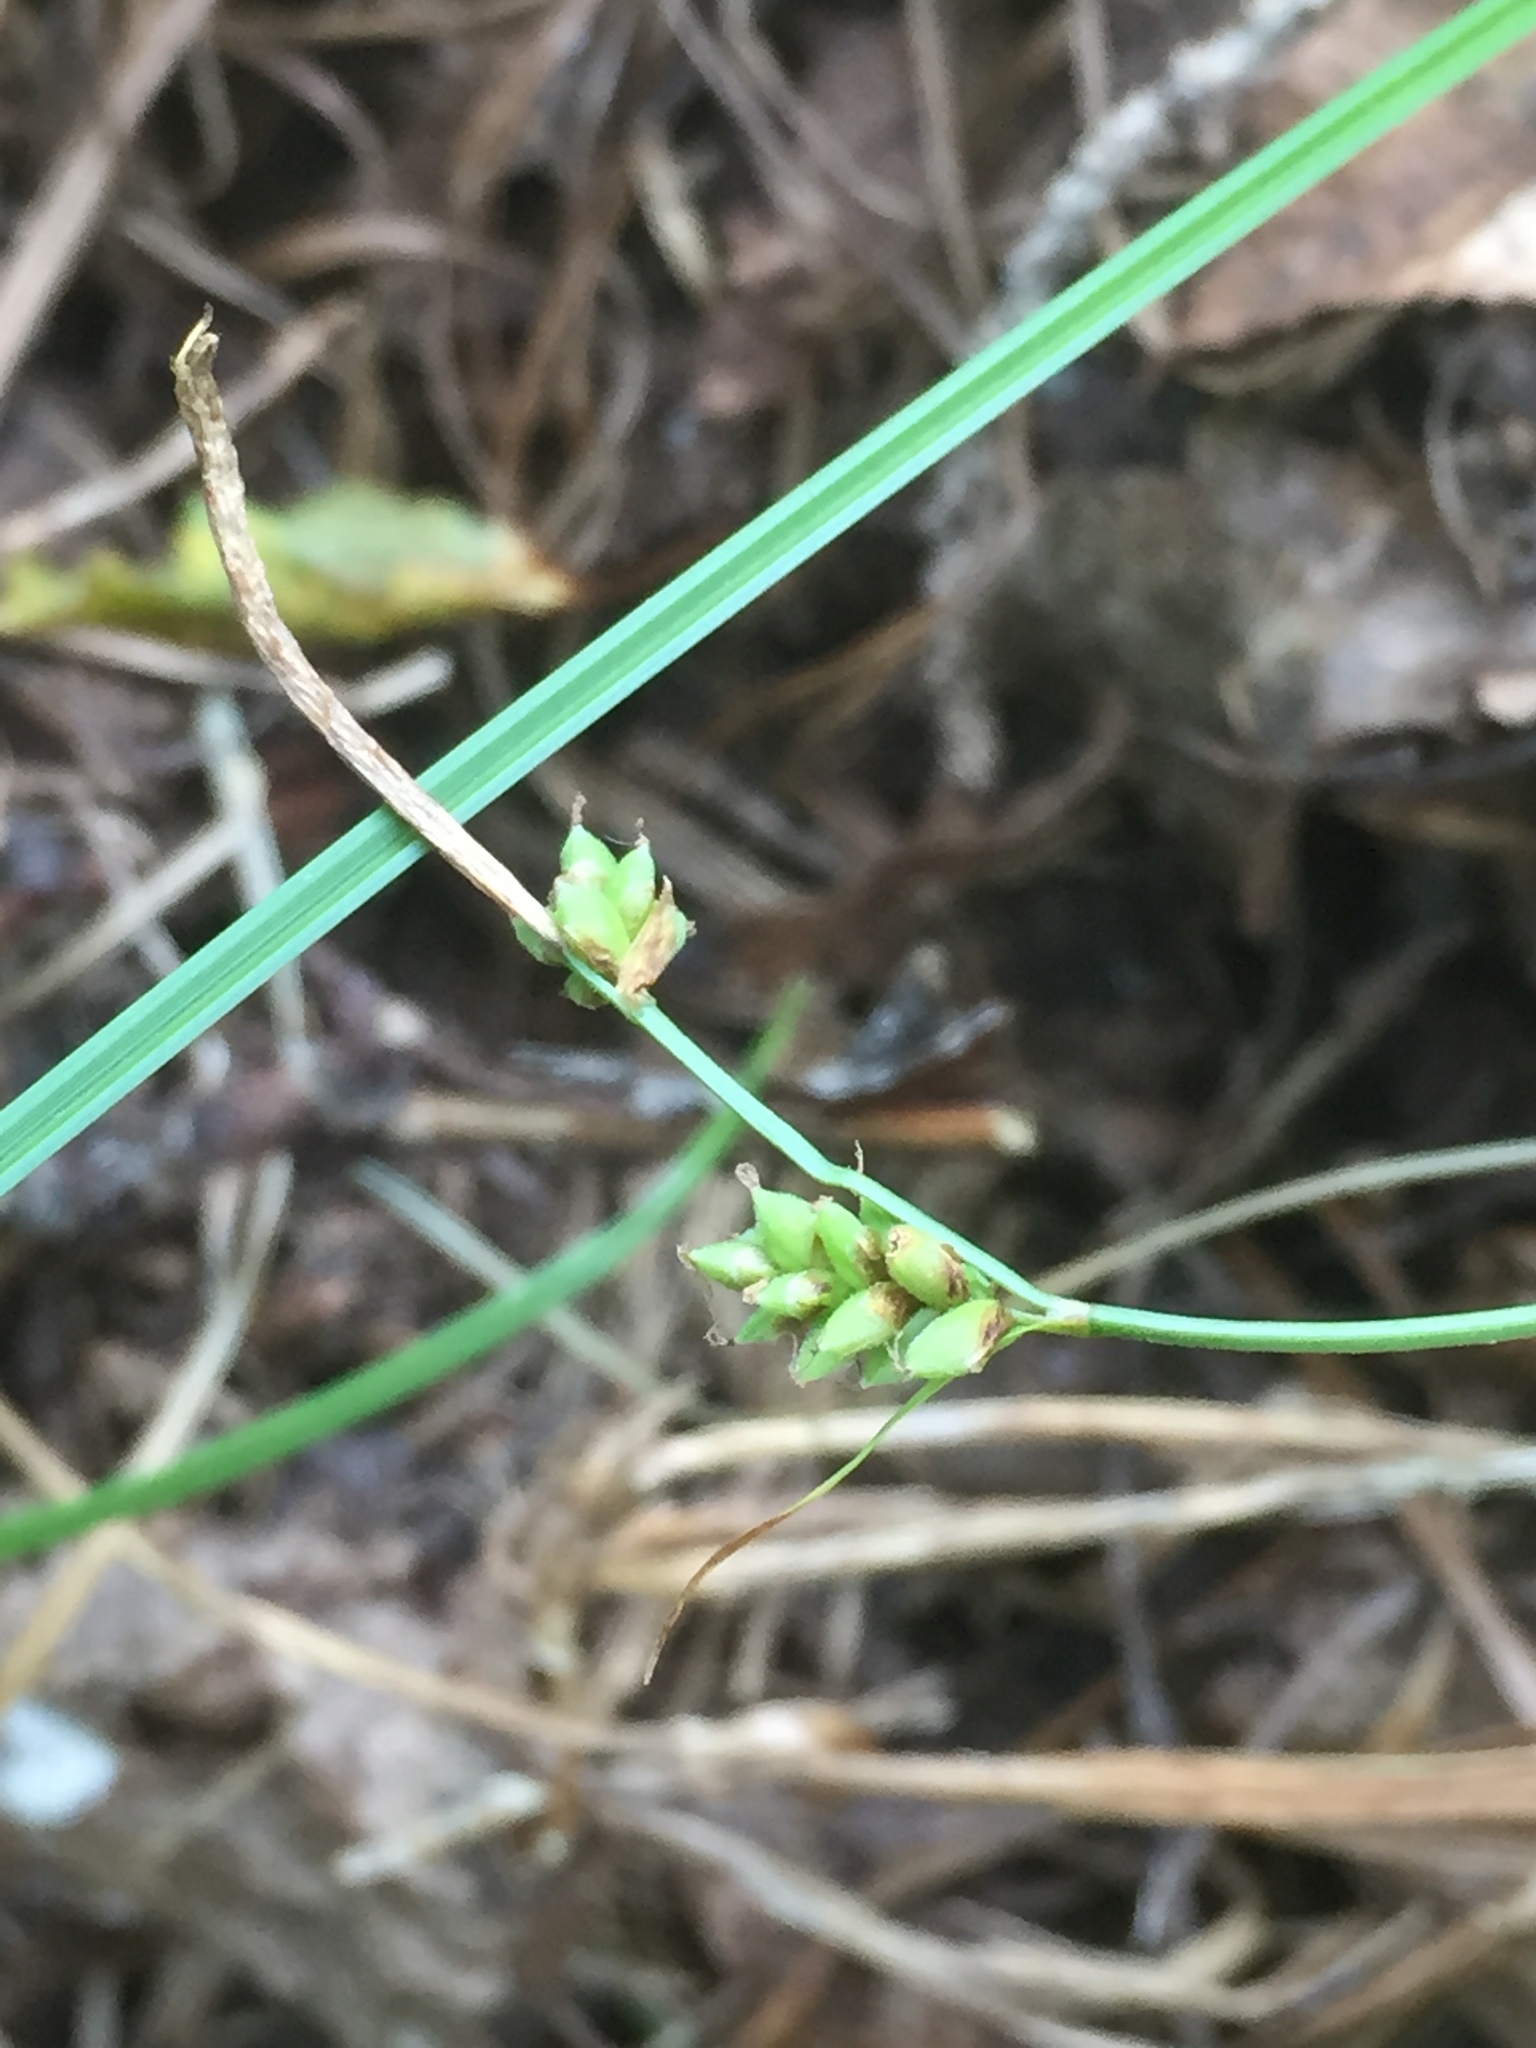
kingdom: Plantae
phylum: Tracheophyta
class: Liliopsida
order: Poales
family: Cyperaceae
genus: Carex
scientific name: Carex globularis
